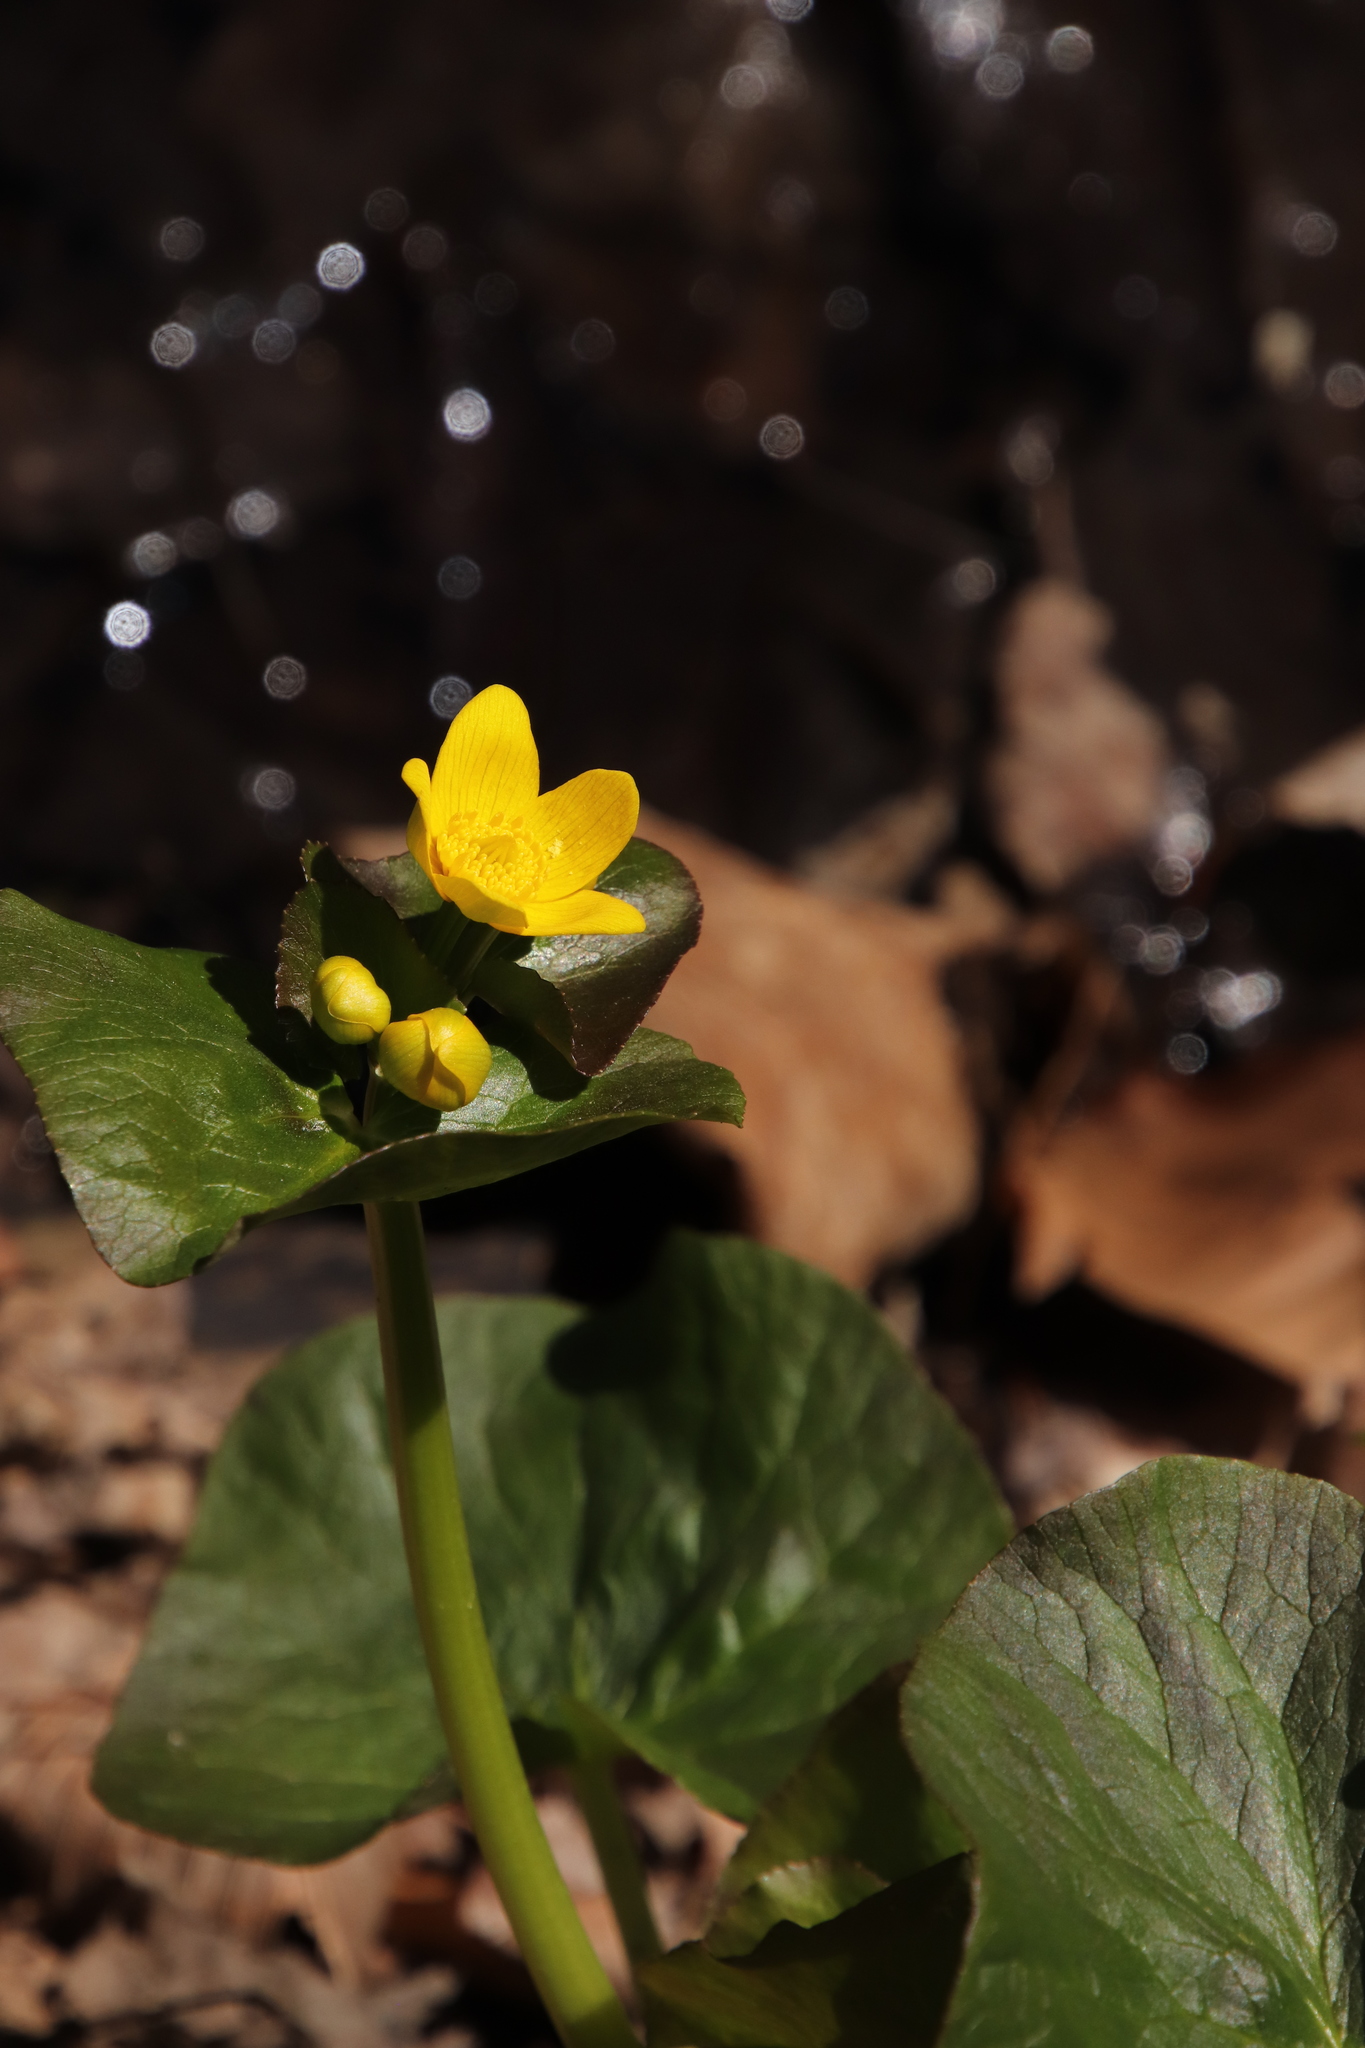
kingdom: Plantae
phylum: Tracheophyta
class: Magnoliopsida
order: Ranunculales
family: Ranunculaceae
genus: Caltha
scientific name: Caltha palustris
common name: Marsh marigold
